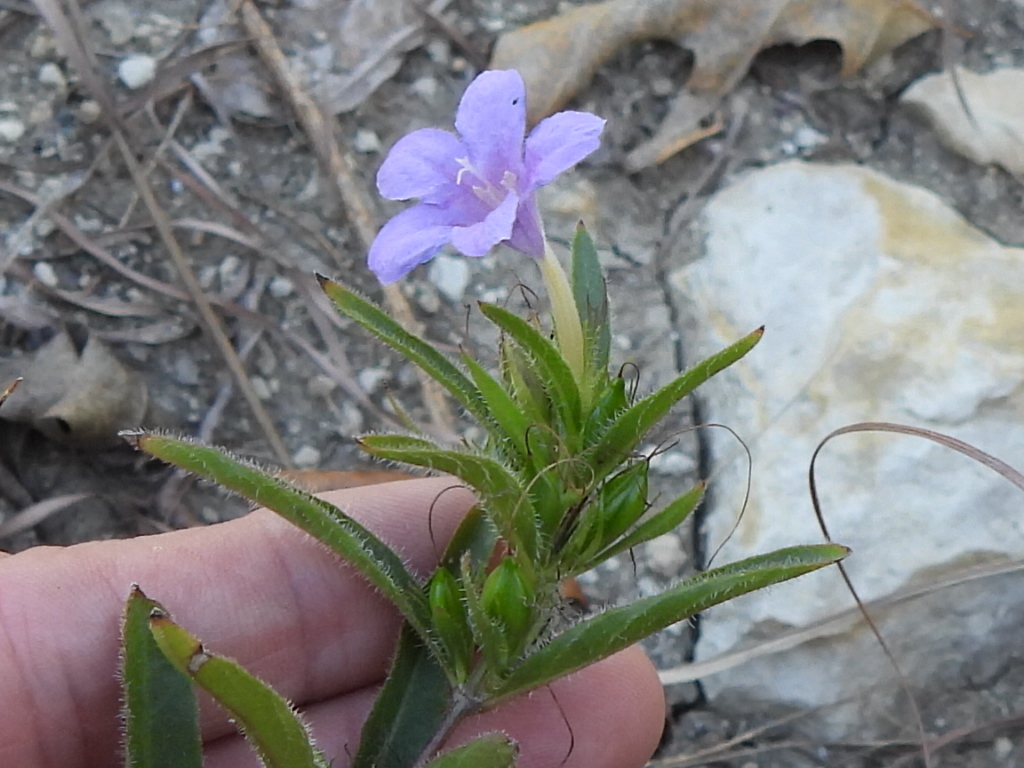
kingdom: Plantae
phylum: Tracheophyta
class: Magnoliopsida
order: Lamiales
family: Acanthaceae
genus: Ruellia
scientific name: Ruellia humilis
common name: Fringe-leaf ruellia
